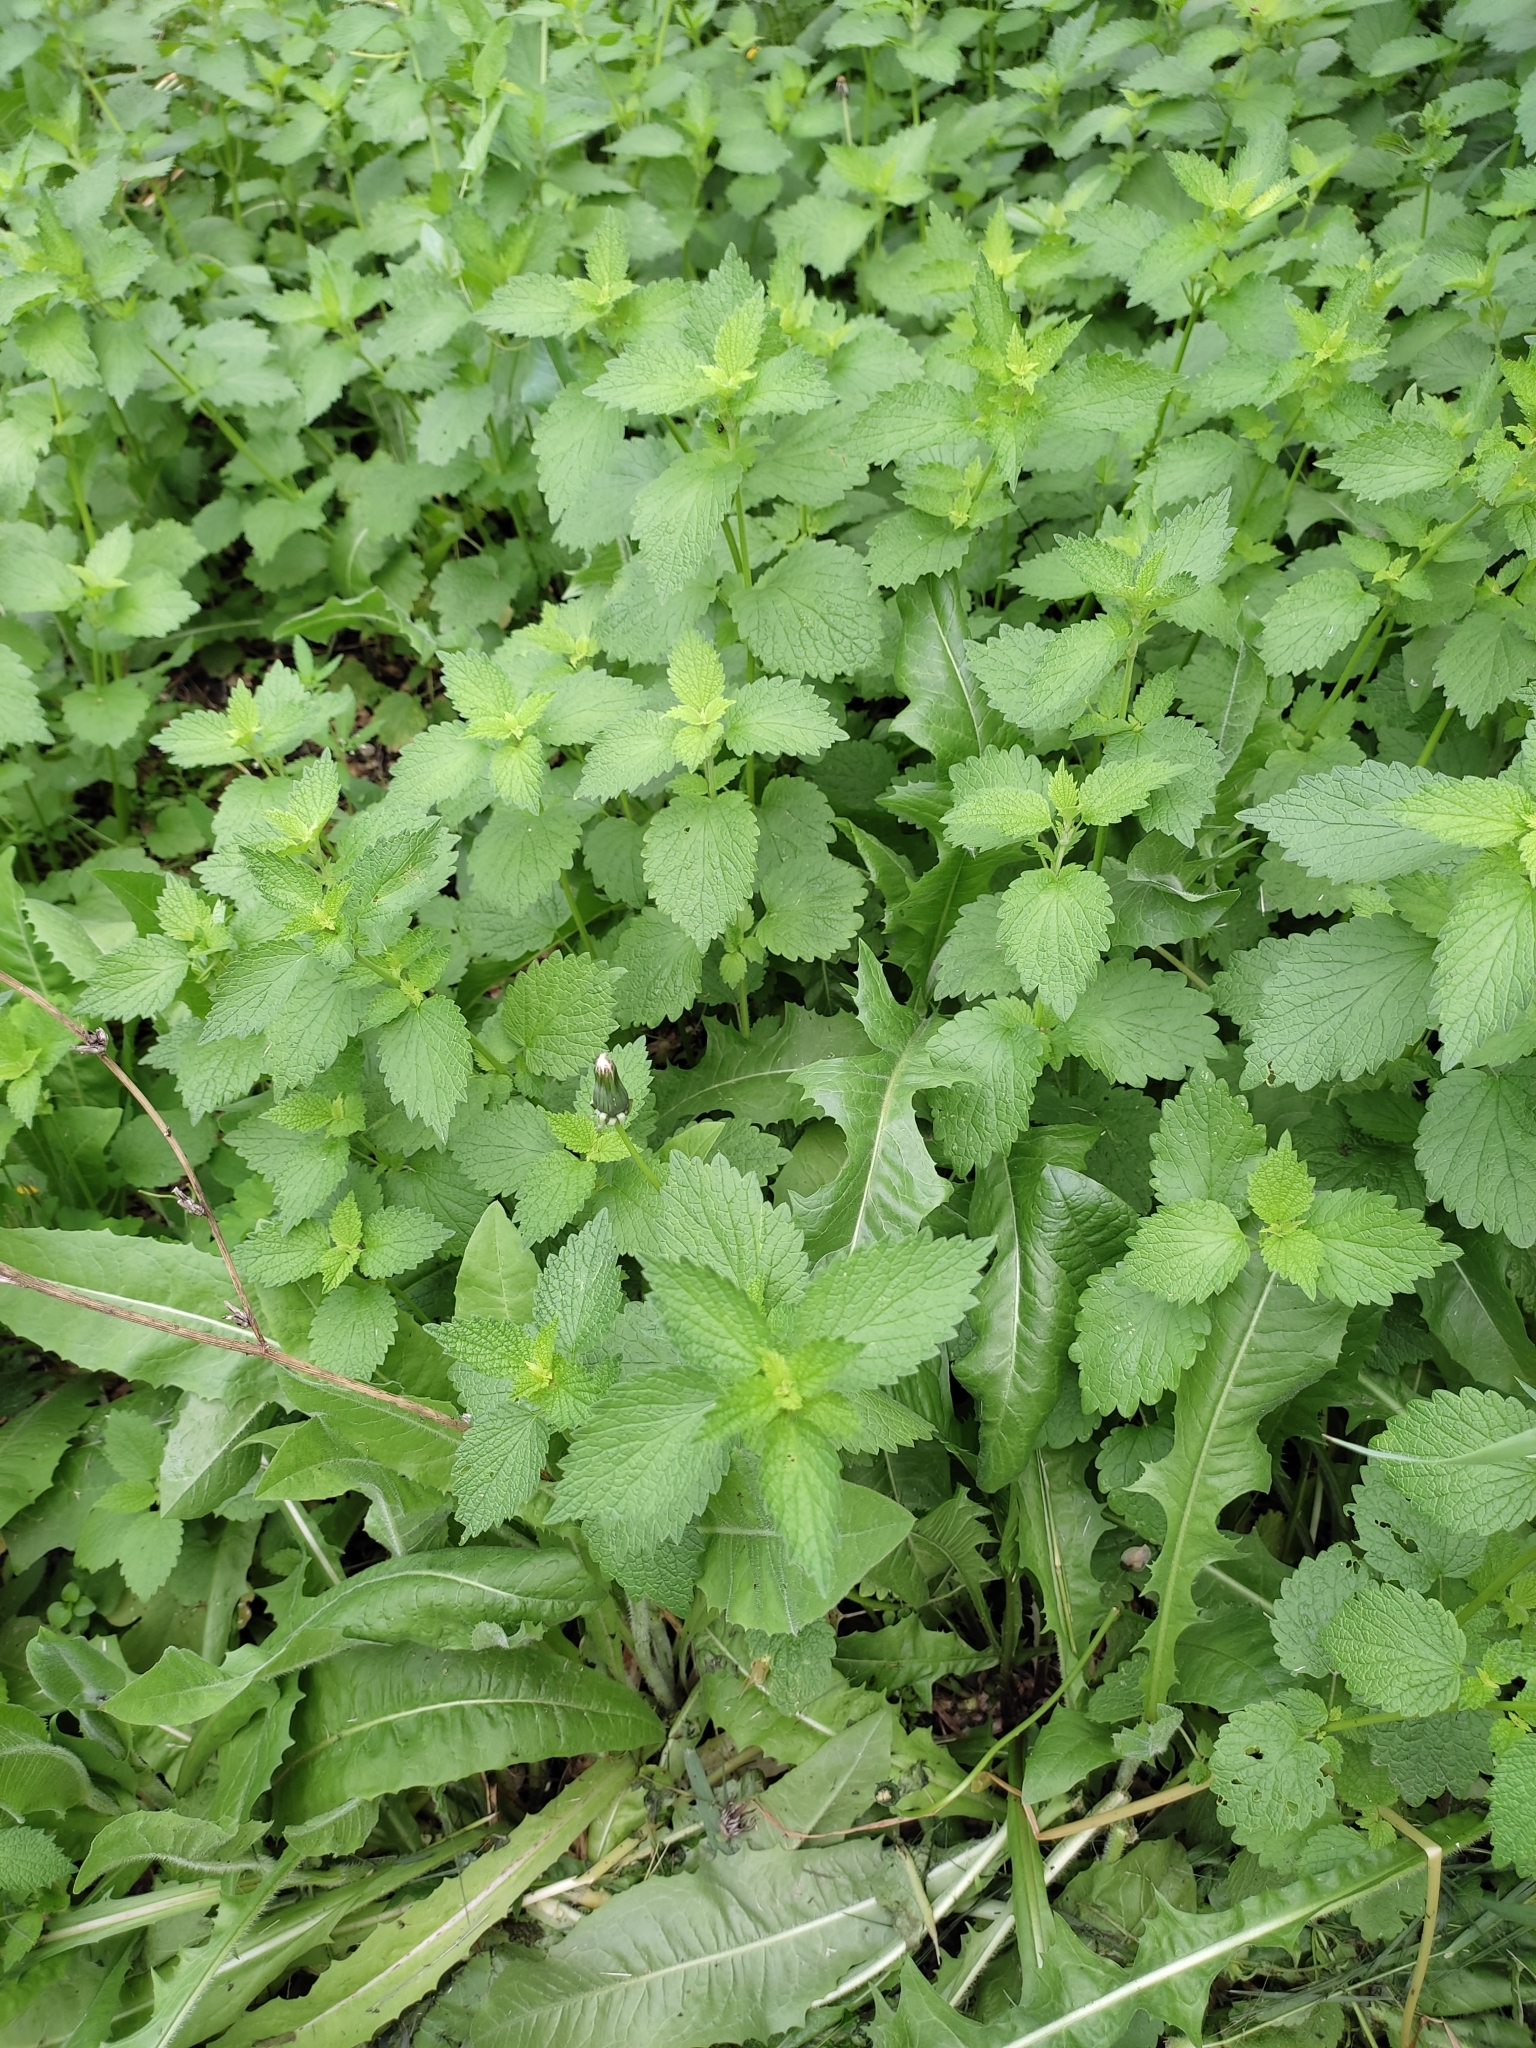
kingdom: Plantae
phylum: Tracheophyta
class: Magnoliopsida
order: Lamiales
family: Lamiaceae
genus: Ballota
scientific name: Ballota nigra
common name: Black horehound
